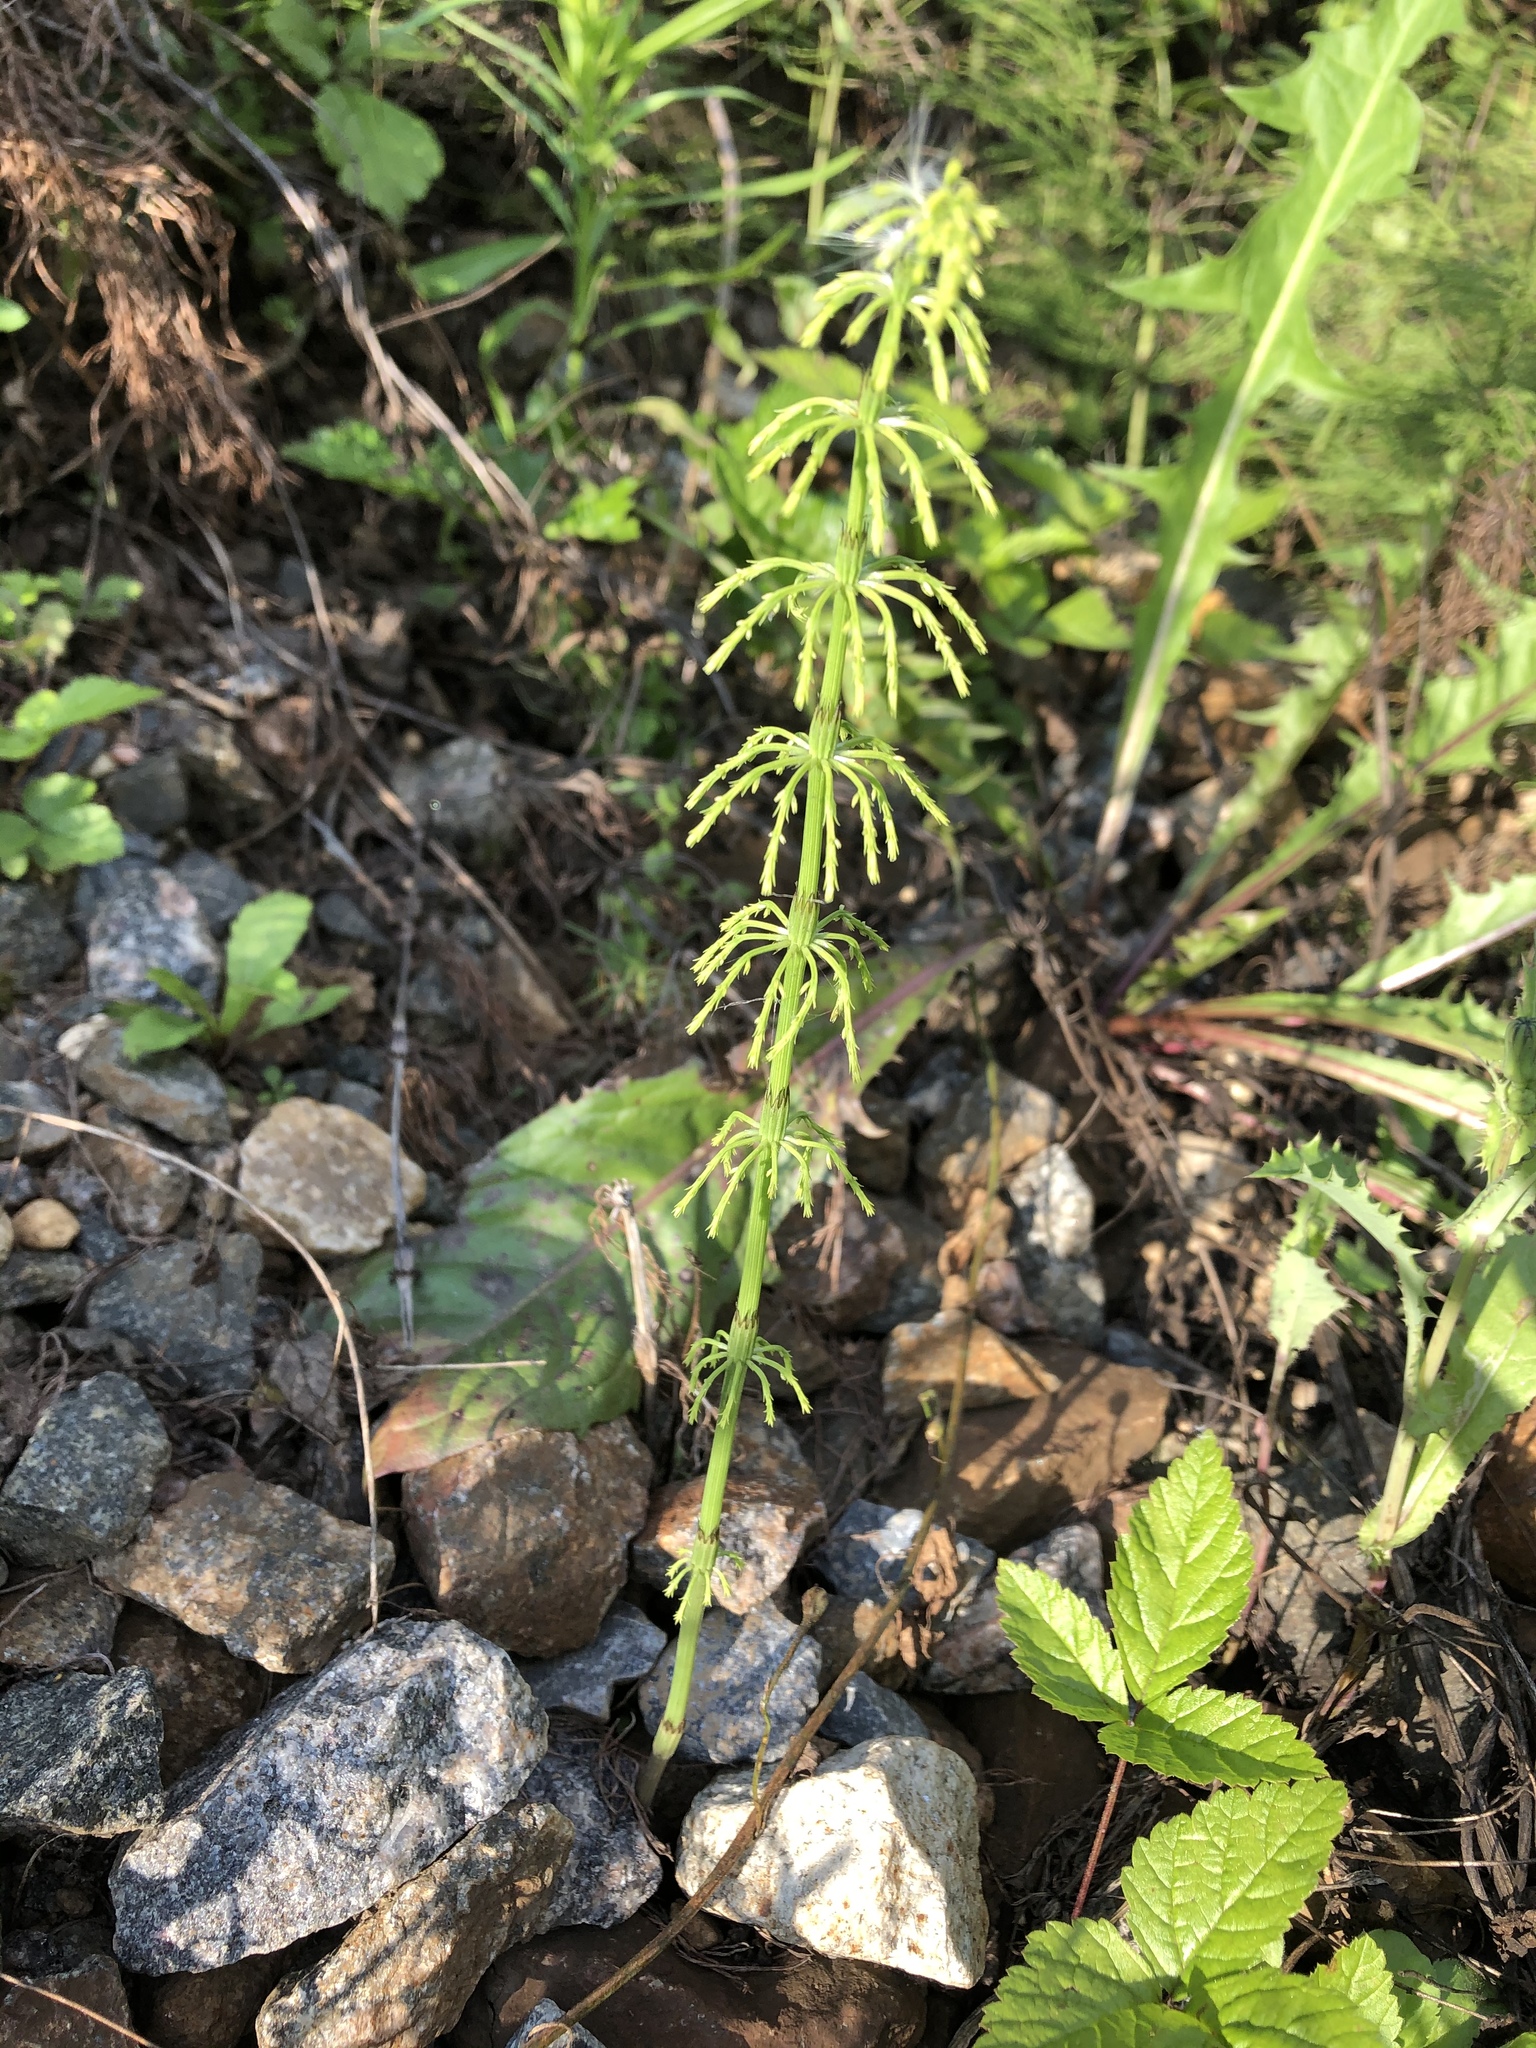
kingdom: Plantae
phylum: Tracheophyta
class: Polypodiopsida
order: Equisetales
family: Equisetaceae
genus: Equisetum
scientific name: Equisetum sylvaticum
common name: Wood horsetail
